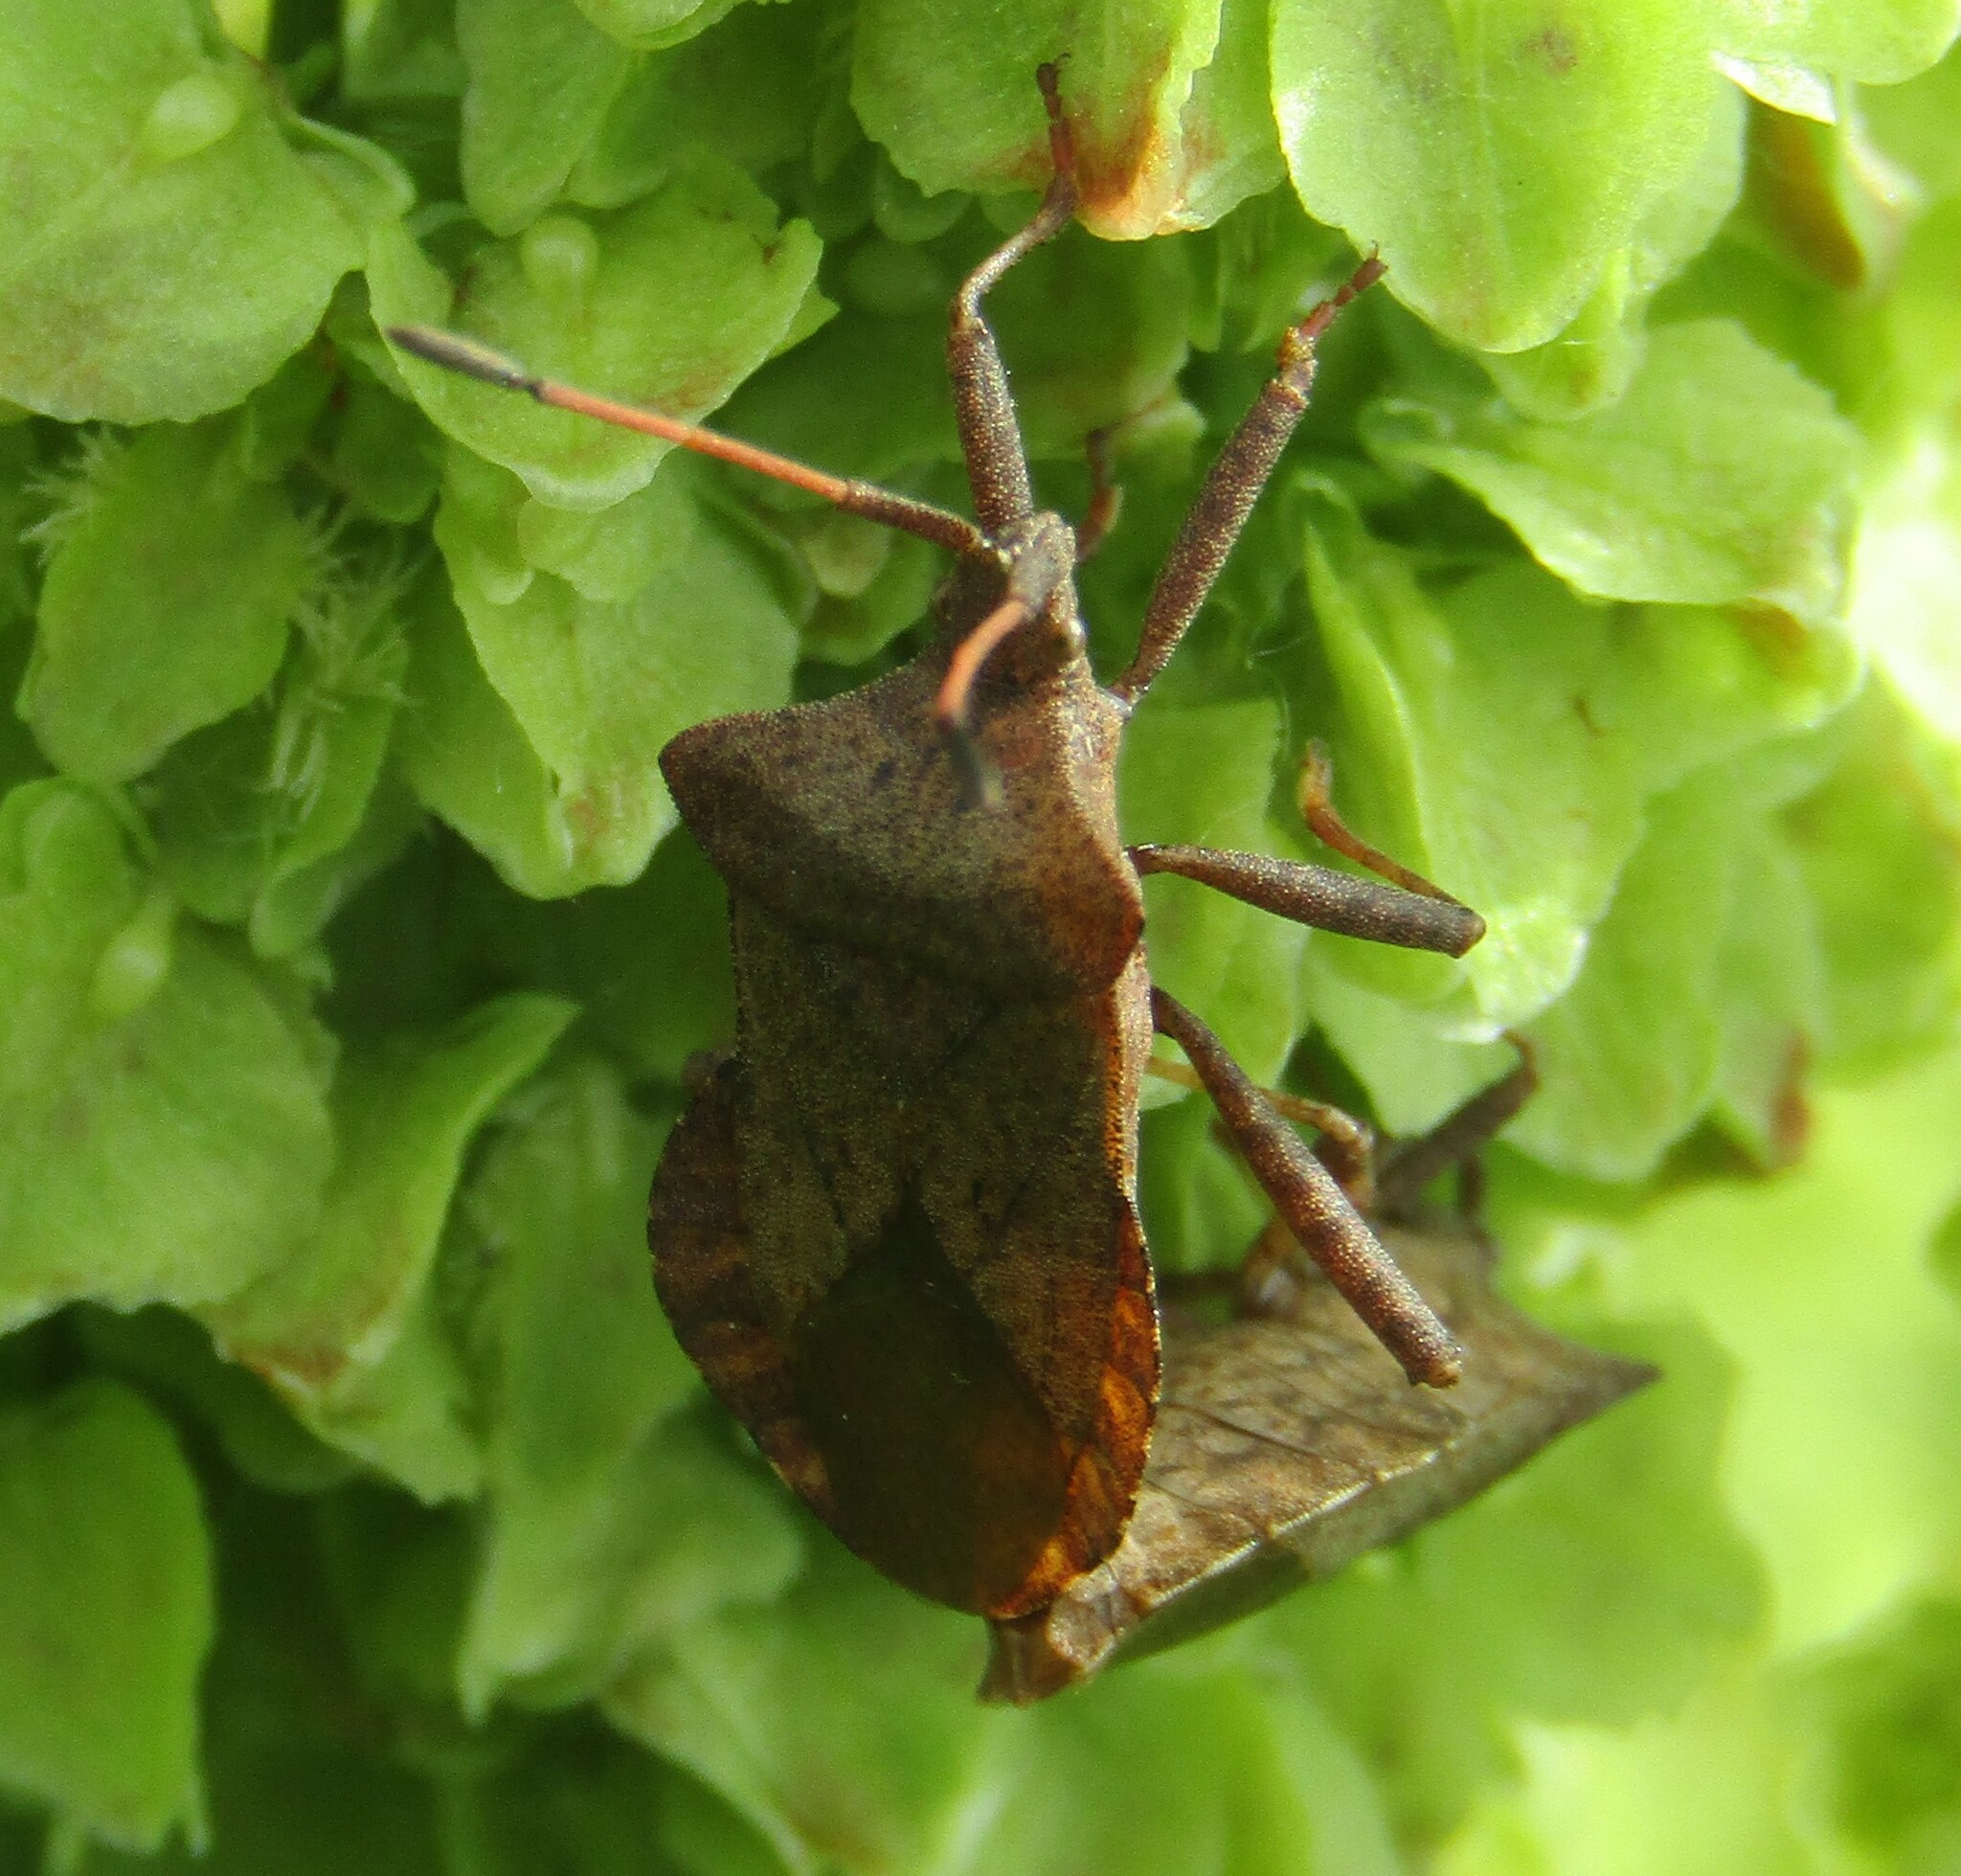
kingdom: Animalia
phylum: Arthropoda
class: Insecta
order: Hemiptera
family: Coreidae
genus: Coreus
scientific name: Coreus marginatus
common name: Dock bug
